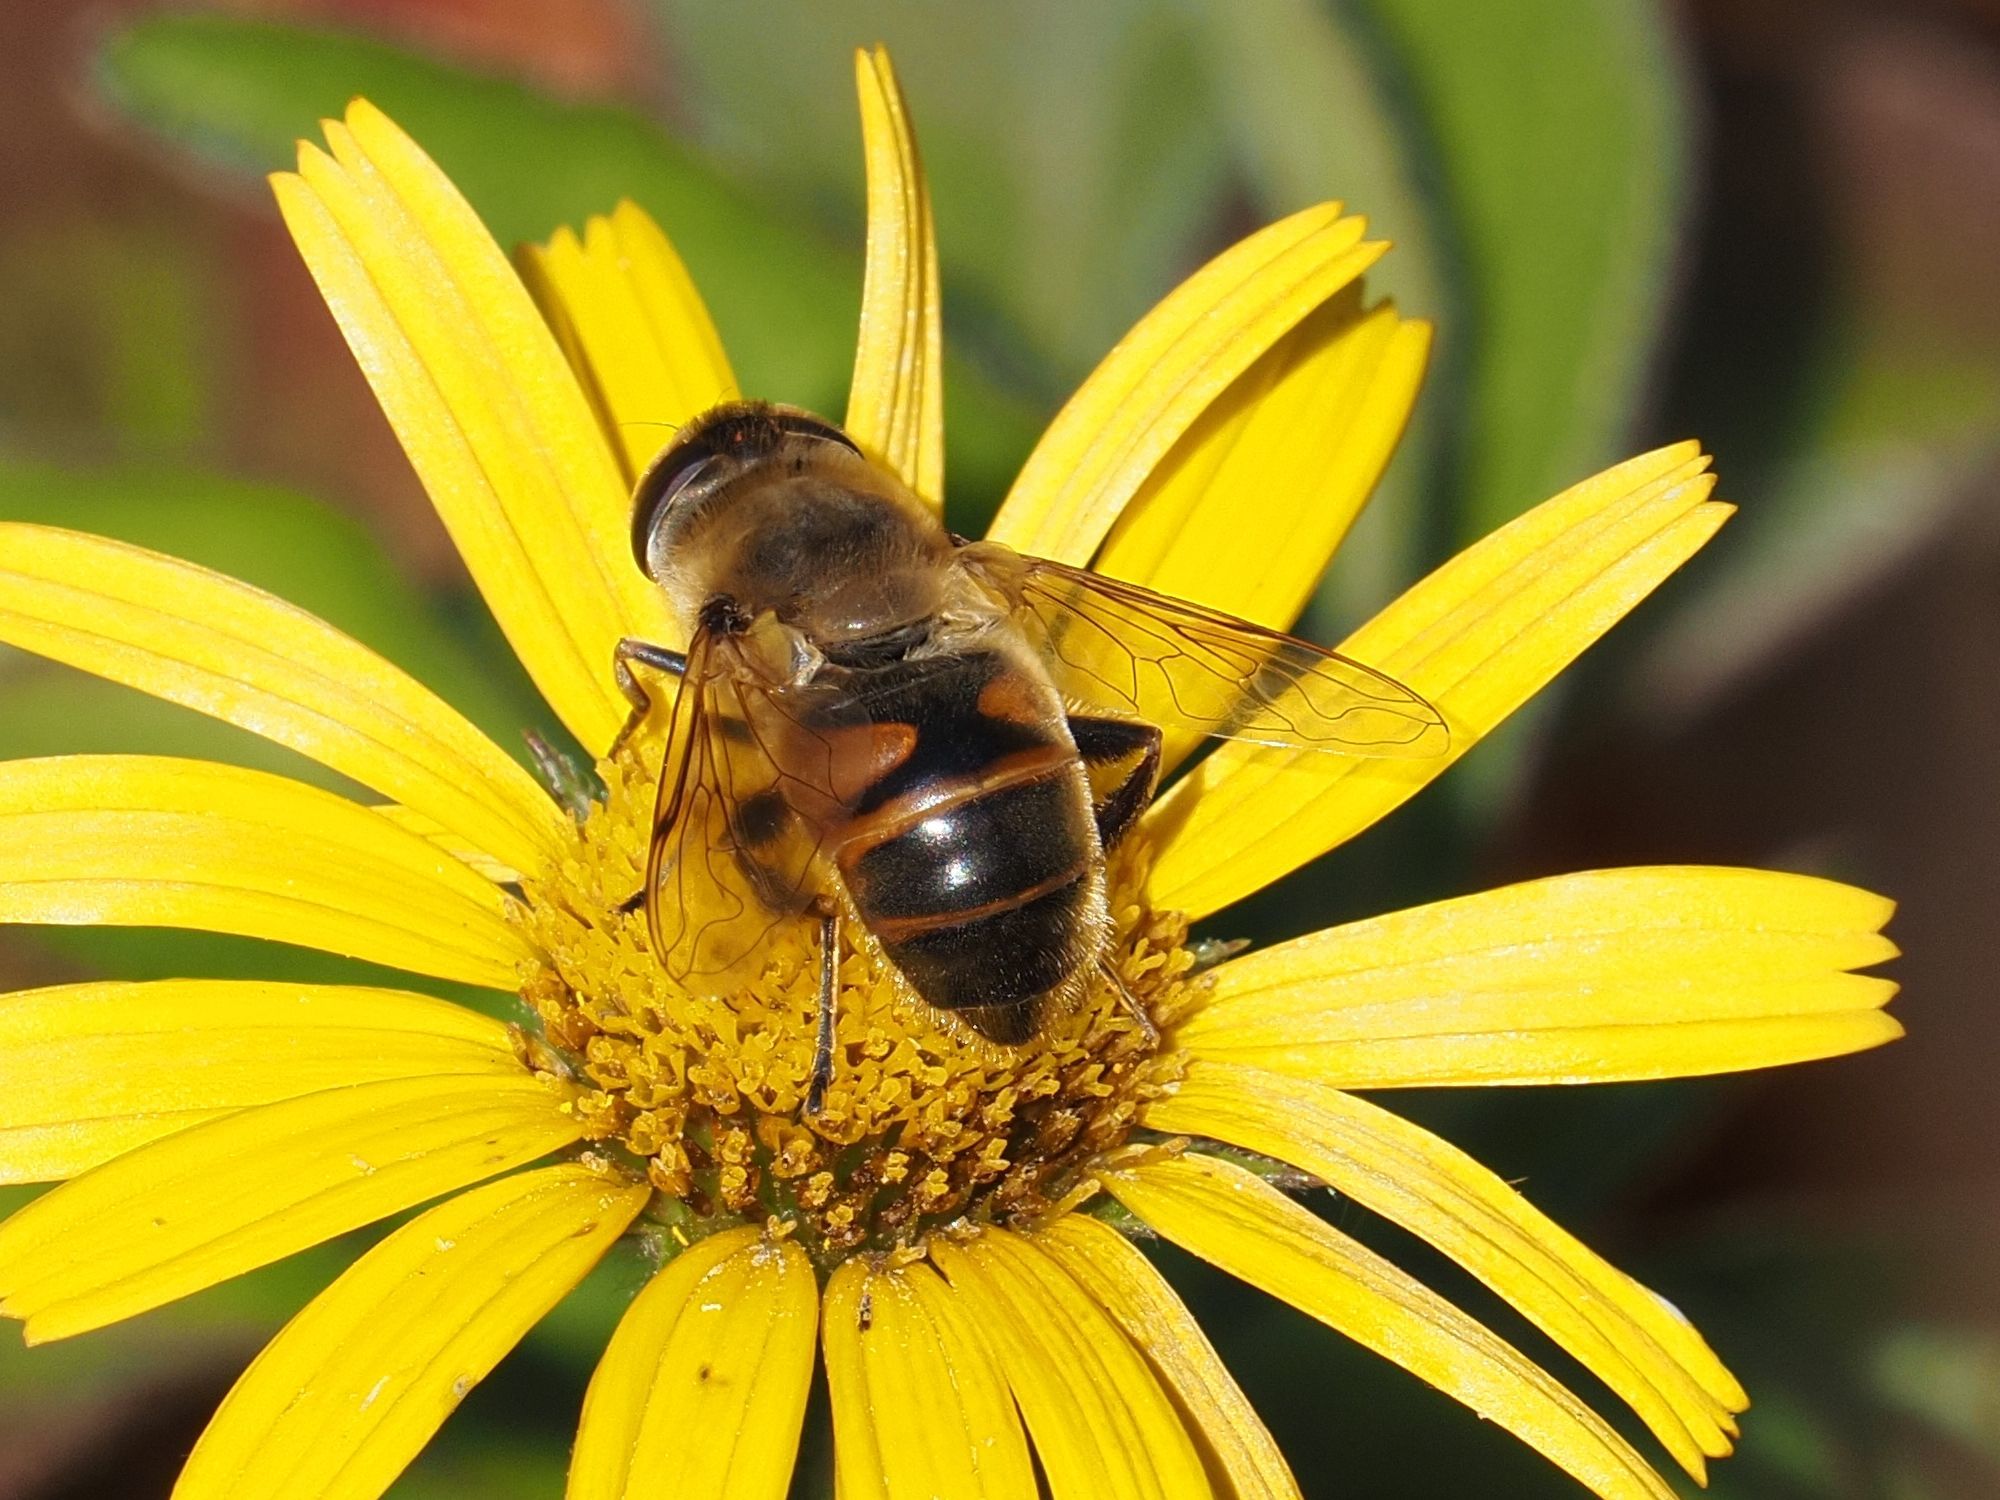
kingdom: Animalia
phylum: Arthropoda
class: Insecta
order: Diptera
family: Syrphidae
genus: Eristalis
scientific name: Eristalis tenax
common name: Drone fly
